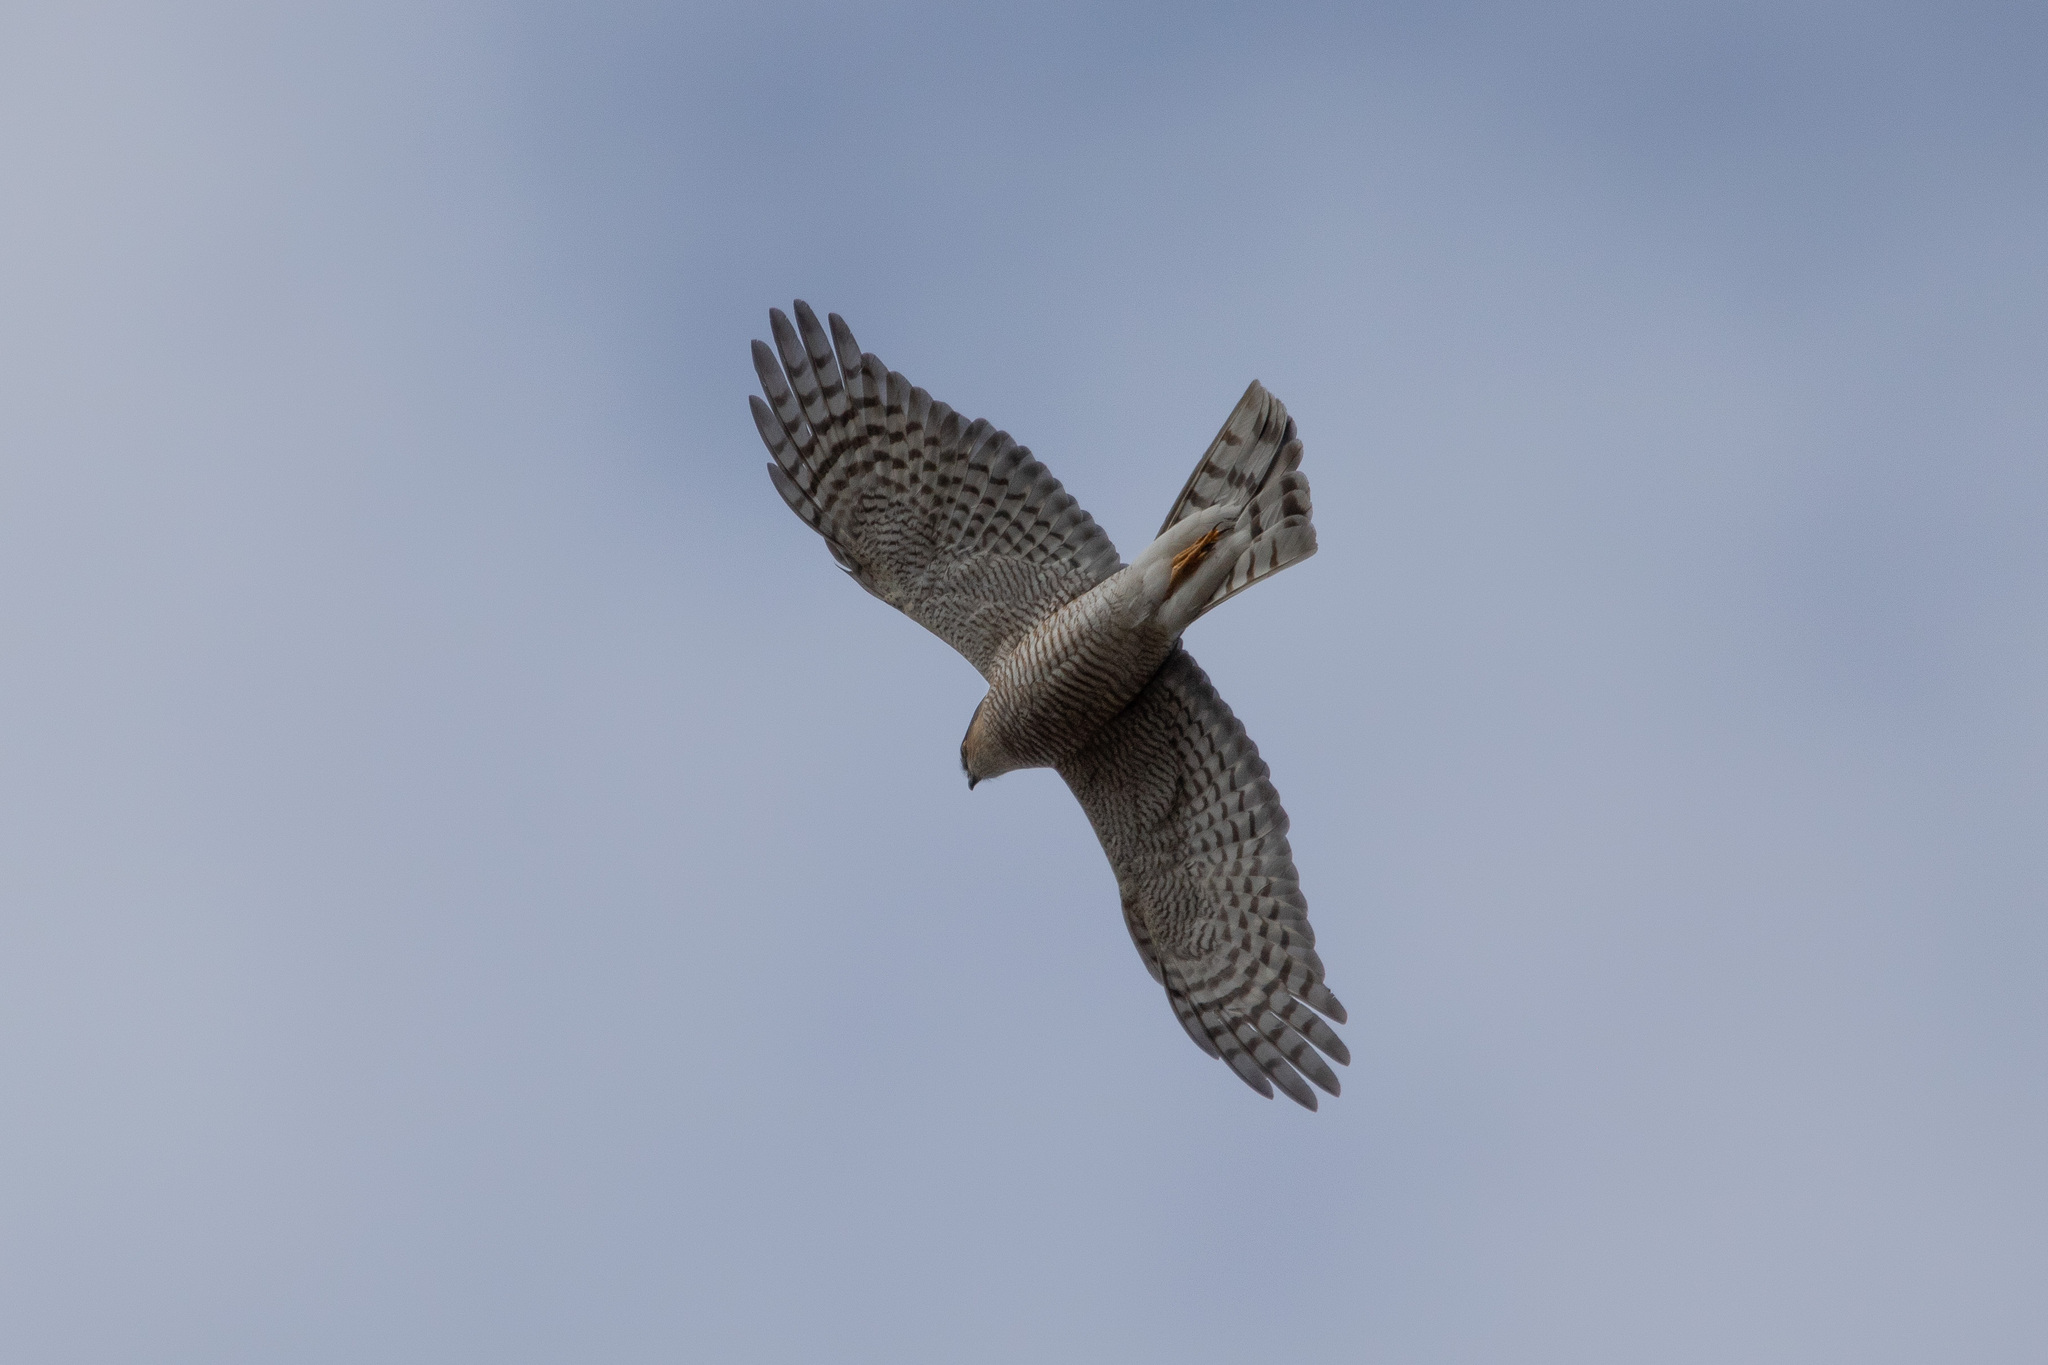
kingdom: Animalia
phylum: Chordata
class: Aves
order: Accipitriformes
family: Accipitridae
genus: Accipiter
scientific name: Accipiter nisus
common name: Eurasian sparrowhawk
